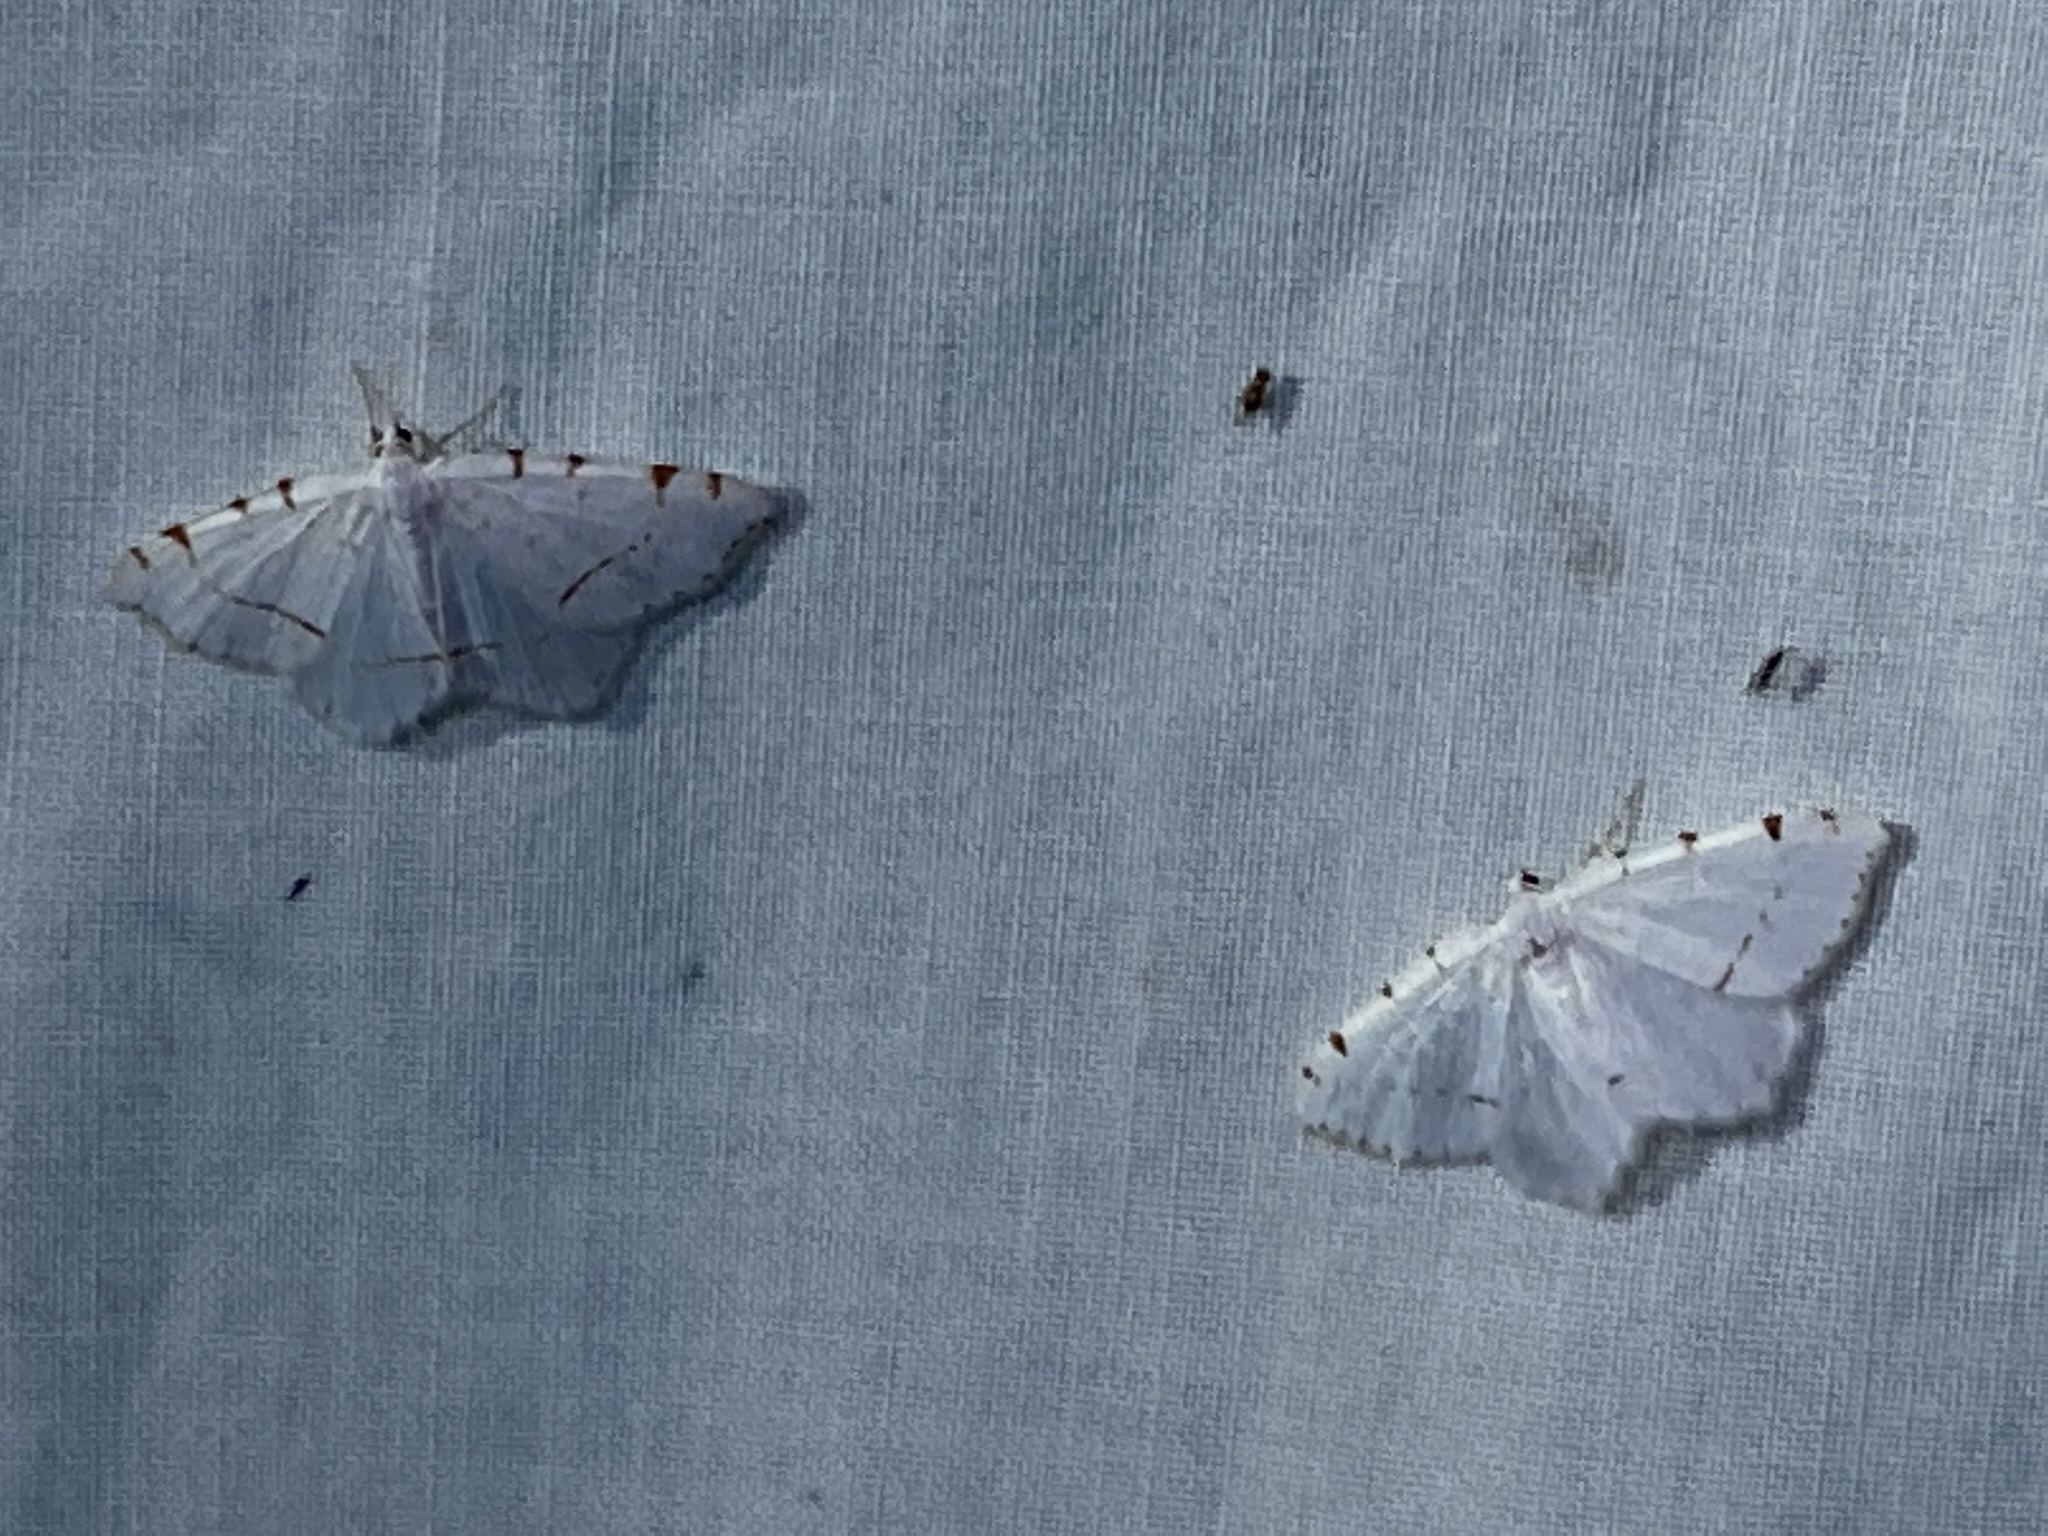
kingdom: Animalia
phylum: Arthropoda
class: Insecta
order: Lepidoptera
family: Geometridae
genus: Macaria
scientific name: Macaria pustularia
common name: Lesser maple spanworm moth
